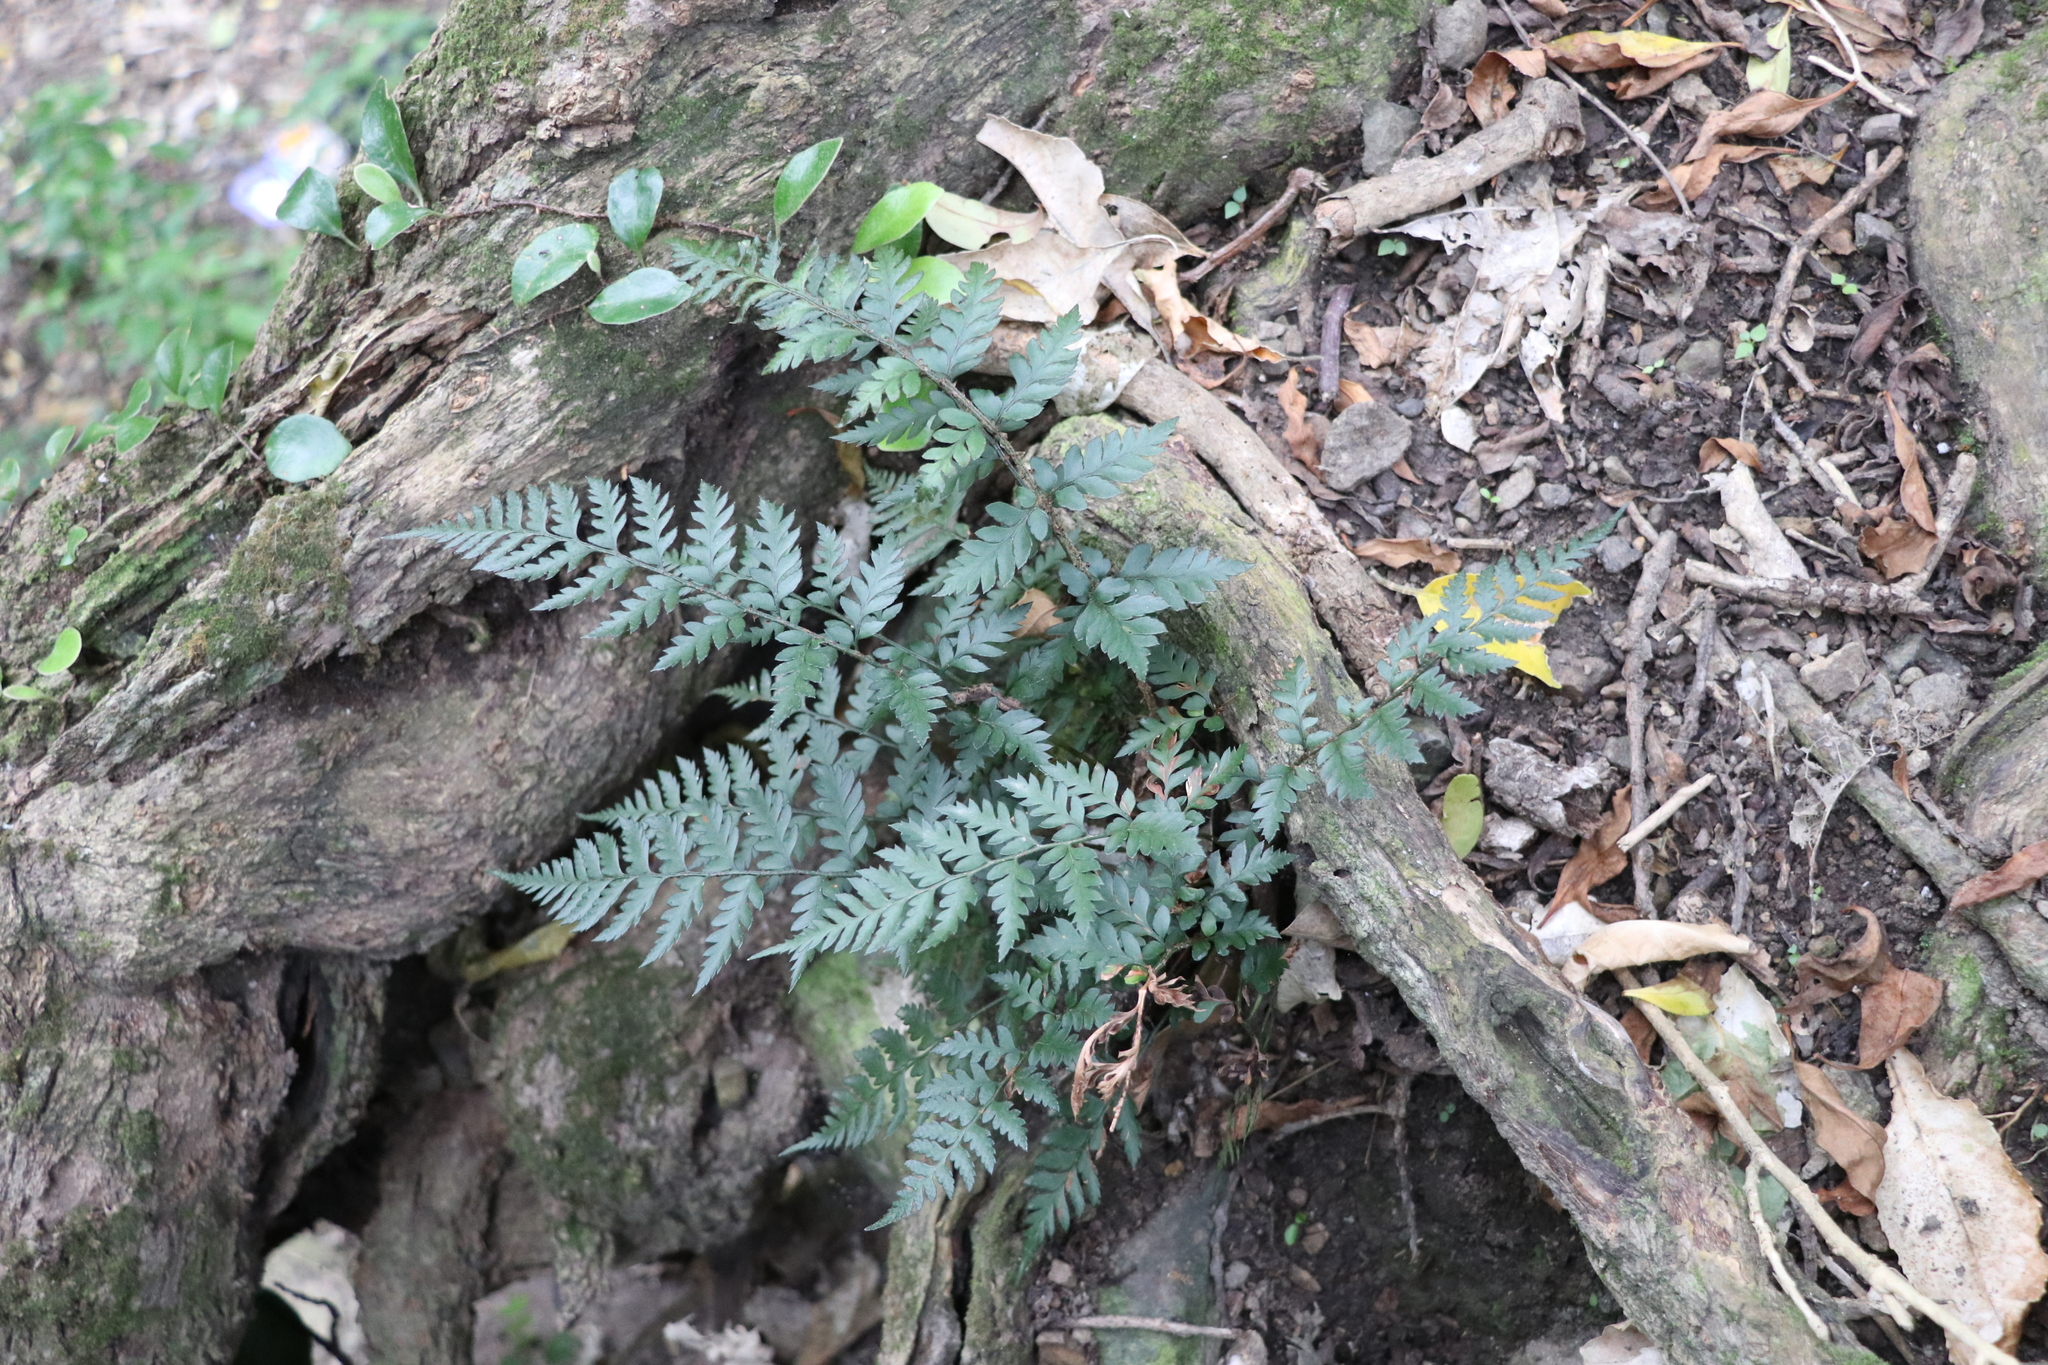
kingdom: Plantae
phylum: Tracheophyta
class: Polypodiopsida
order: Polypodiales
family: Dryopteridaceae
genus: Polystichum
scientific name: Polystichum oculatum
